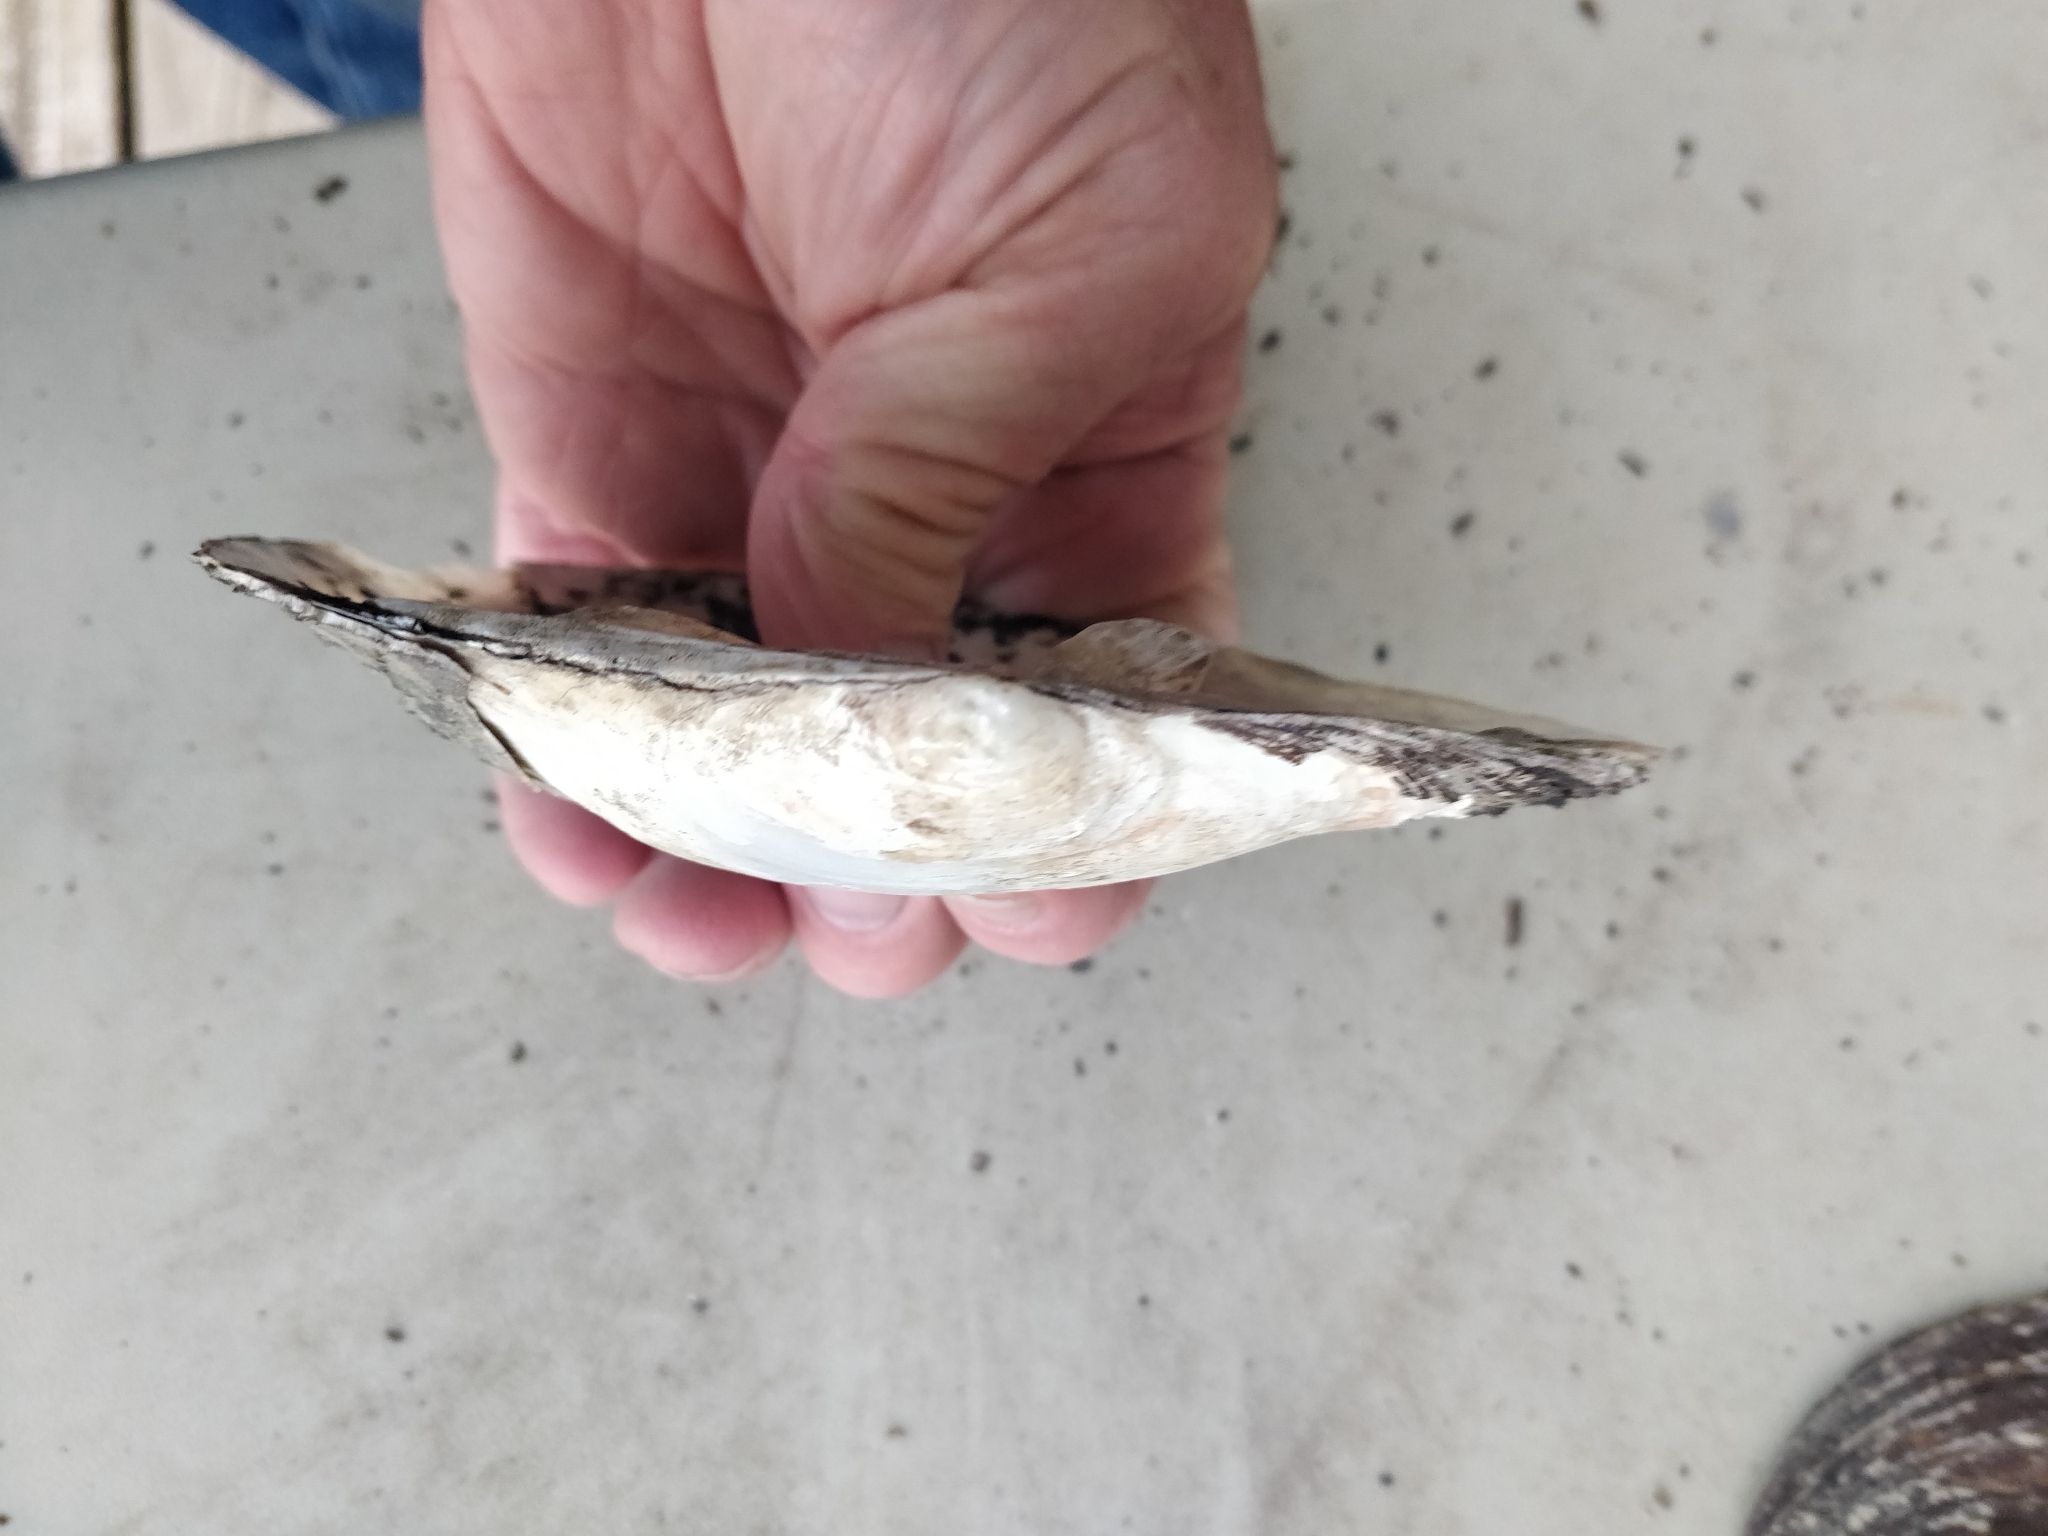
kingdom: Animalia
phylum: Mollusca
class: Bivalvia
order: Unionida
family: Unionidae
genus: Lasmigona
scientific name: Lasmigona complanata
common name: White heelsplitter
